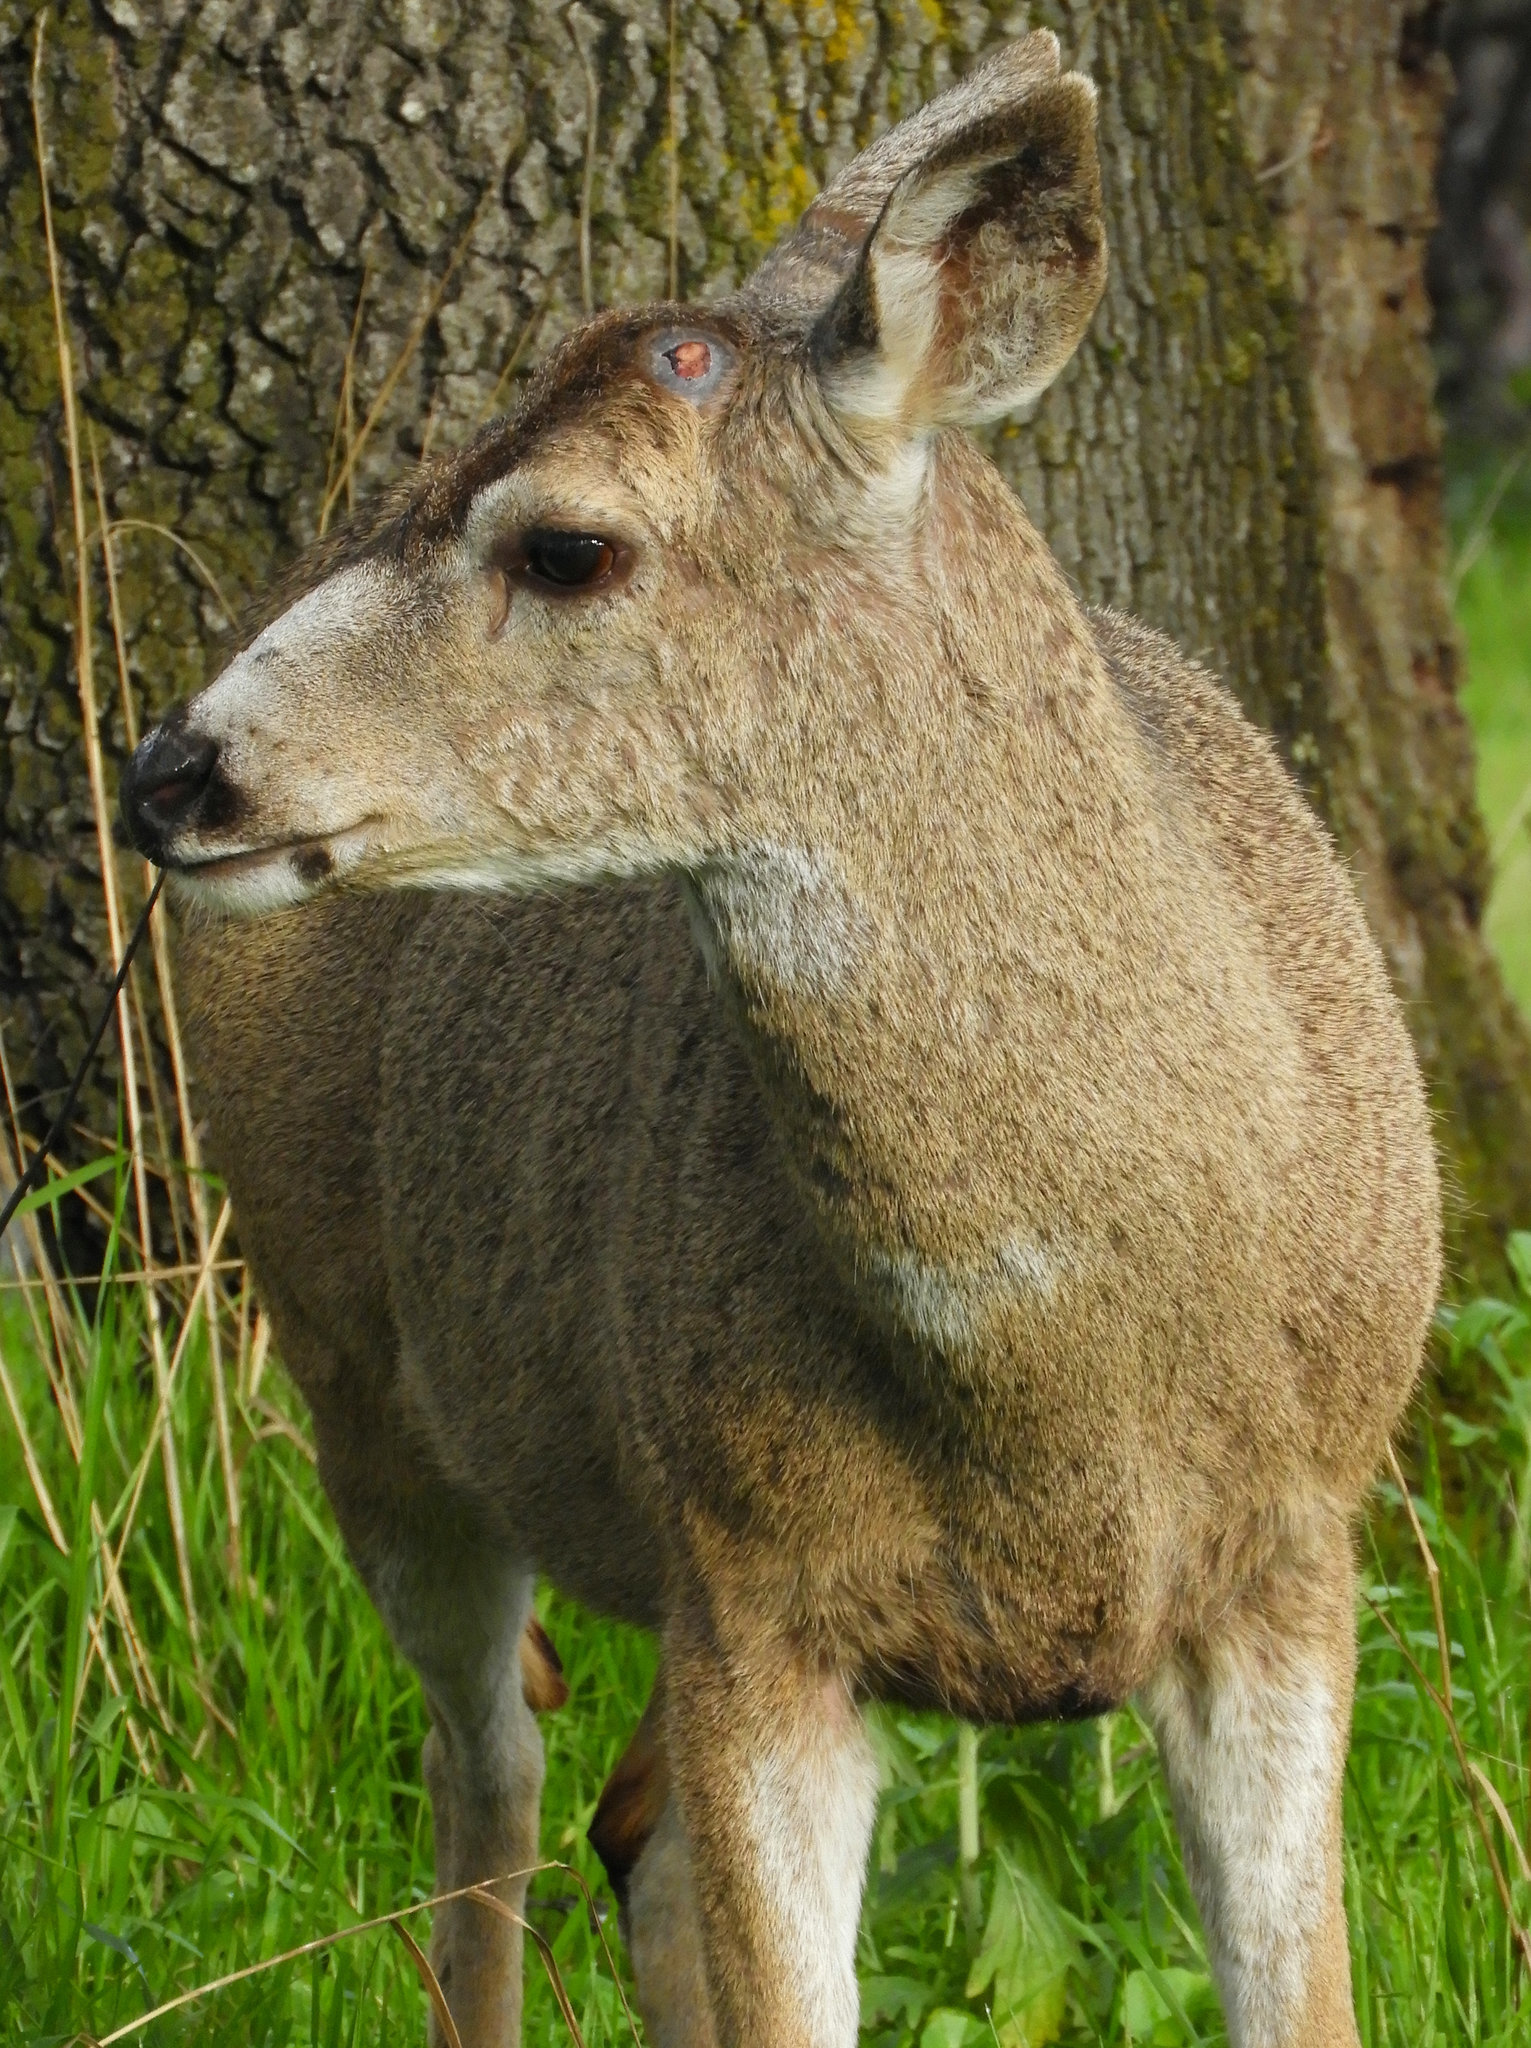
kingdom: Animalia
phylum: Chordata
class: Mammalia
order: Artiodactyla
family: Cervidae
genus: Odocoileus
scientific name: Odocoileus hemionus
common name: Mule deer
